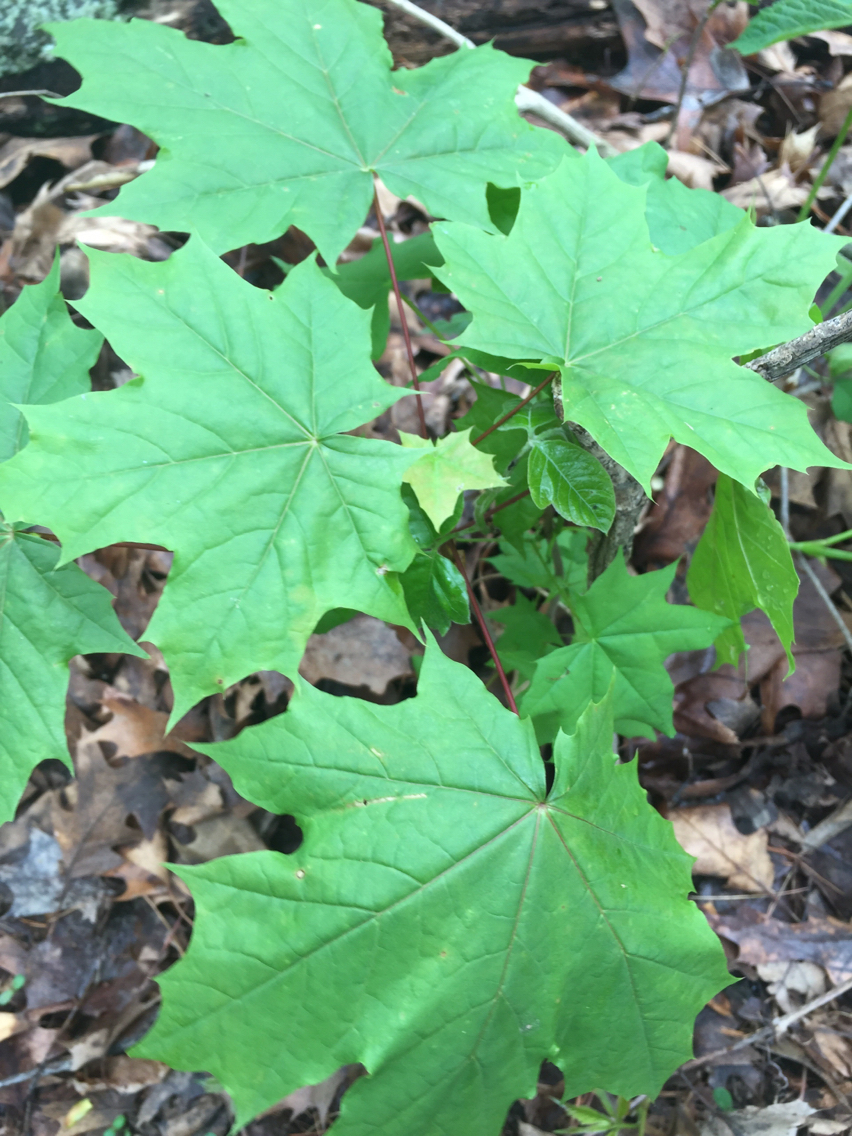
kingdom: Plantae
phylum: Tracheophyta
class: Magnoliopsida
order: Sapindales
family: Sapindaceae
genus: Acer
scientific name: Acer platanoides
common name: Norway maple
